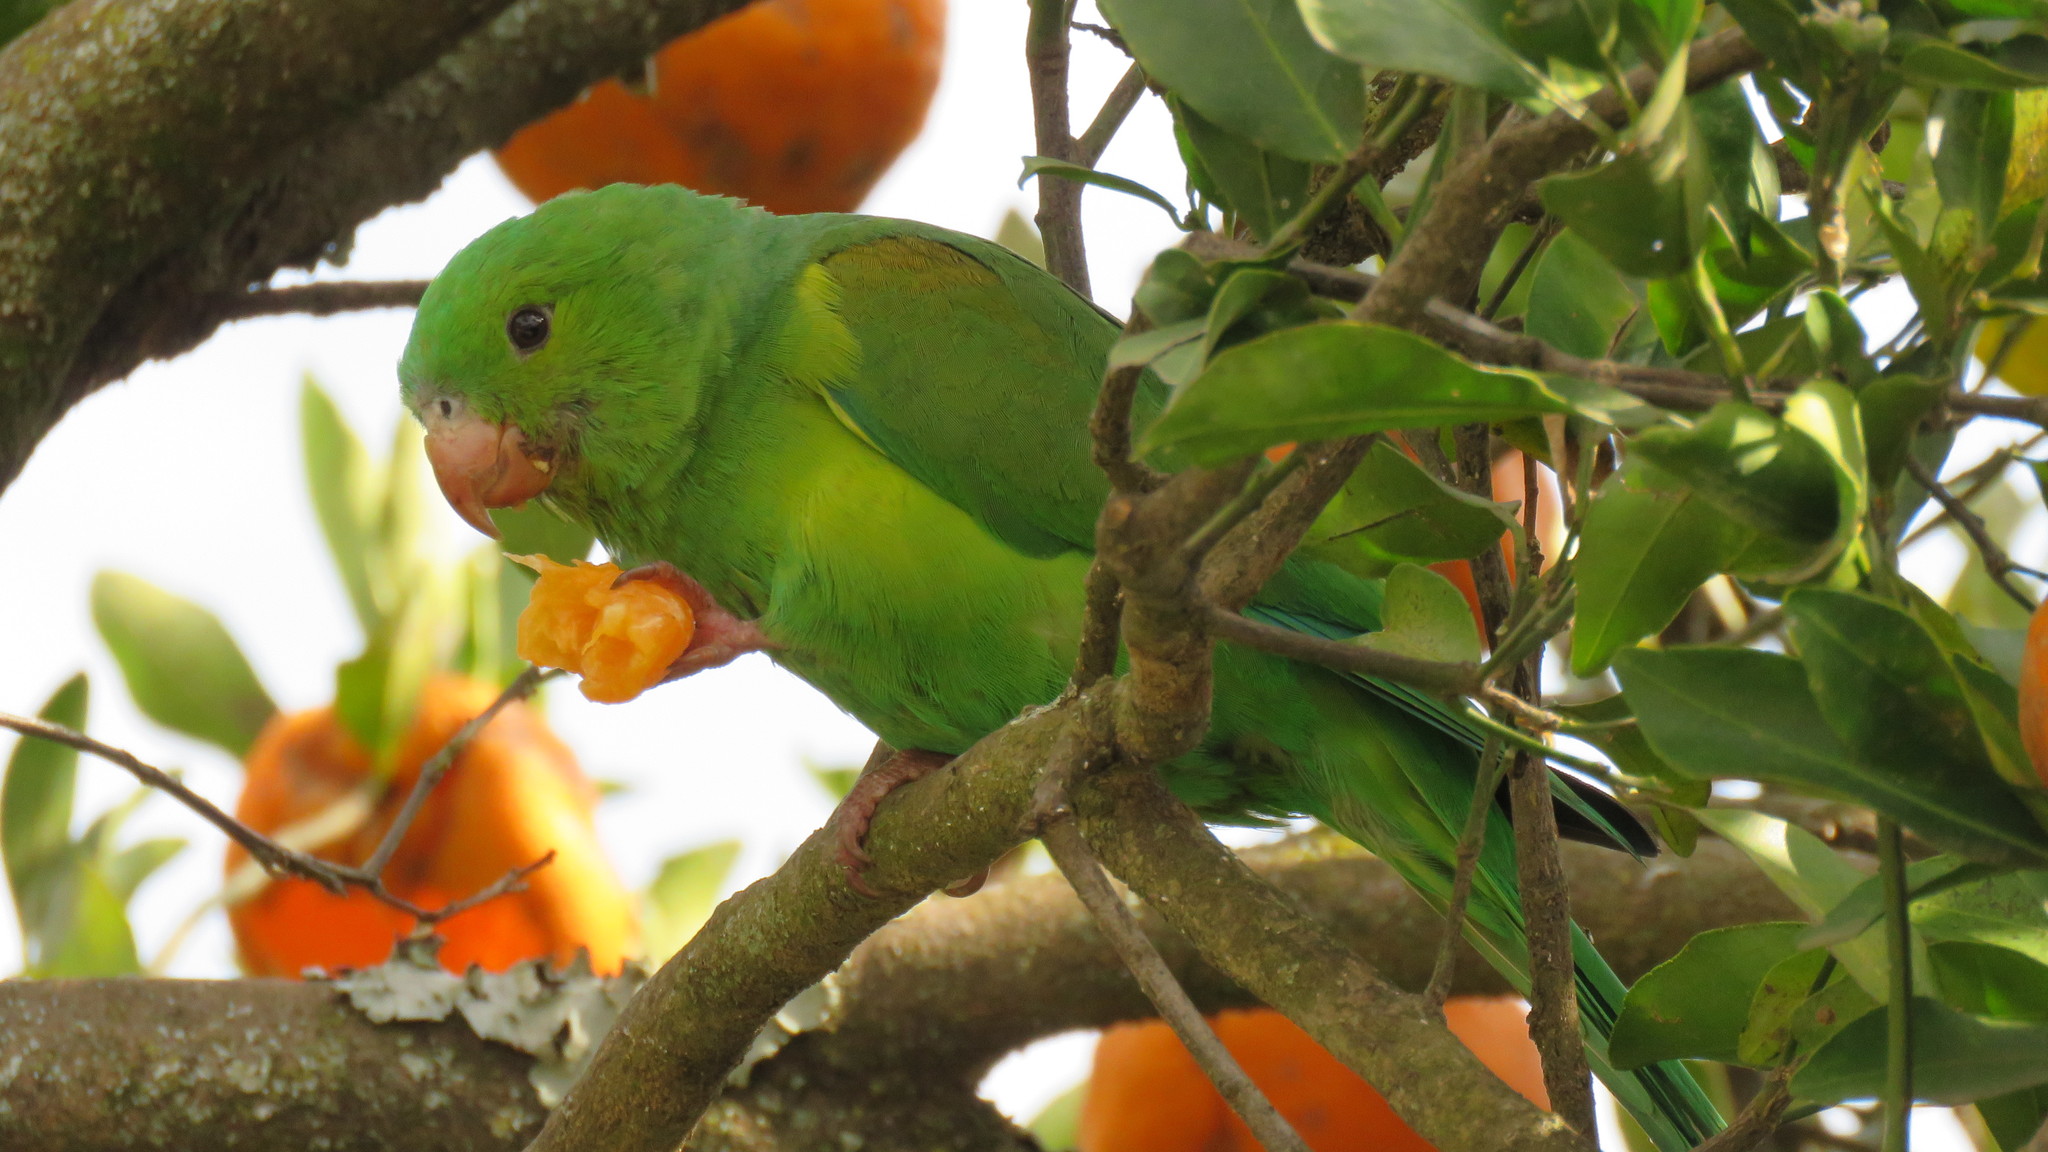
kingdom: Animalia
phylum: Chordata
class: Aves
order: Psittaciformes
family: Psittacidae
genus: Brotogeris
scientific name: Brotogeris tirica
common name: Plain parakeet
